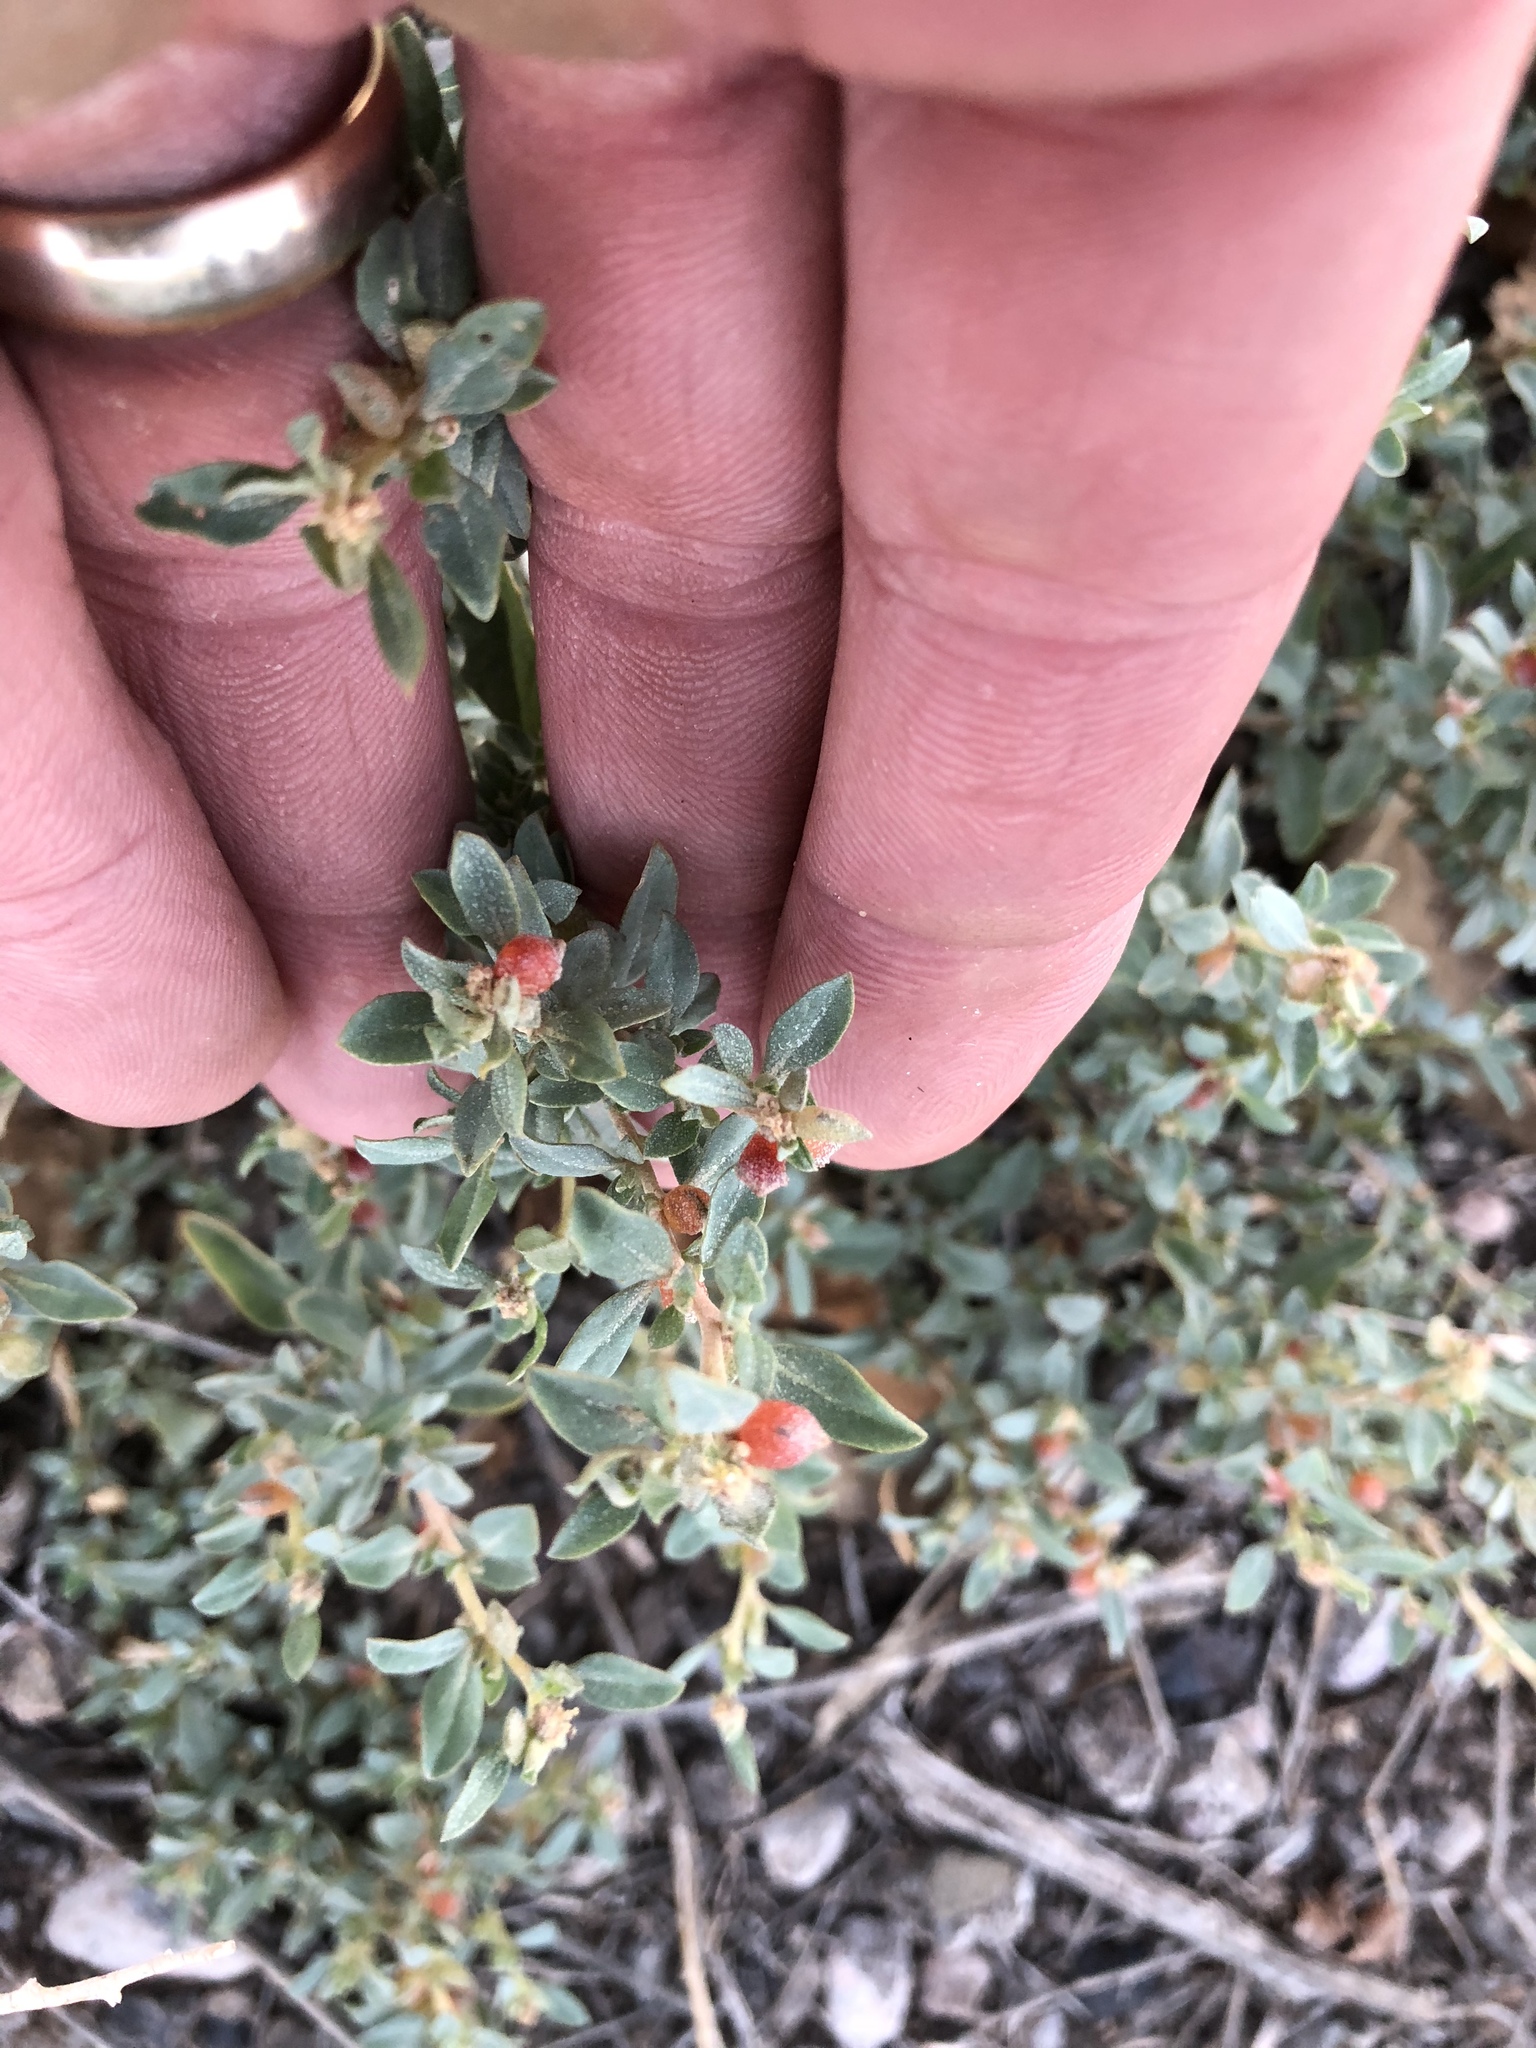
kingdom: Plantae
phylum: Tracheophyta
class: Magnoliopsida
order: Caryophyllales
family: Amaranthaceae
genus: Atriplex
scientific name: Atriplex semibaccata
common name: Australian saltbush
